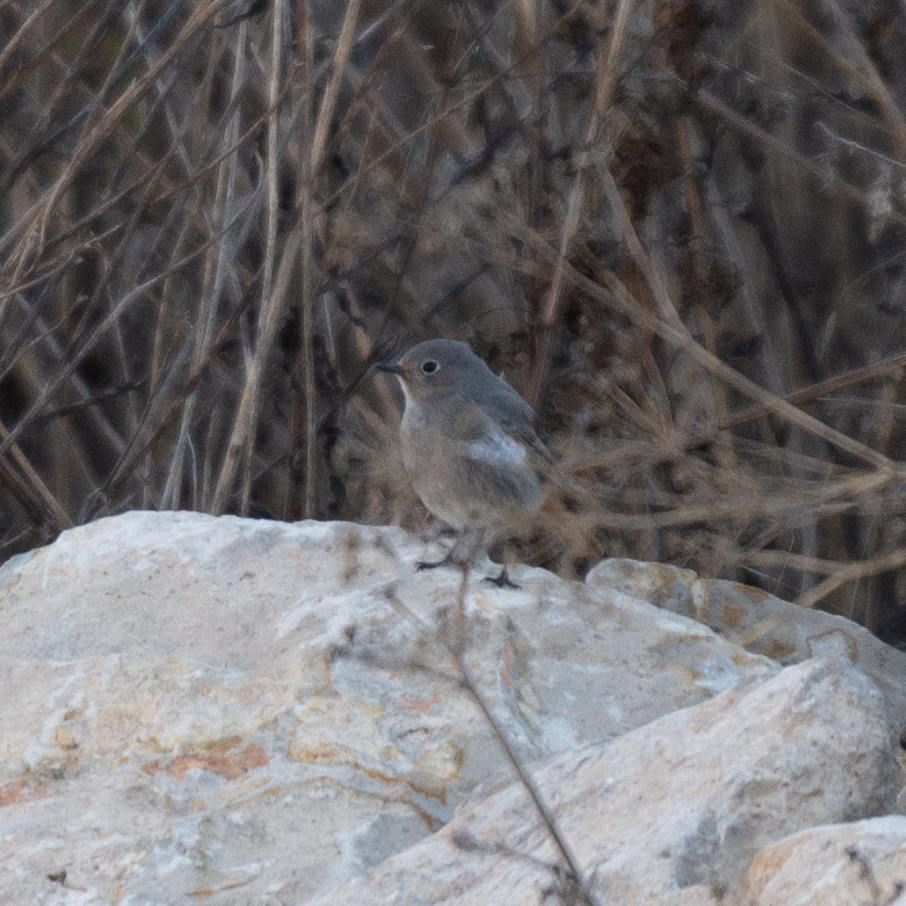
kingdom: Animalia
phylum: Chordata
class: Aves
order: Passeriformes
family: Muscicapidae
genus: Phoenicurus
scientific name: Phoenicurus ochruros
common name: Black redstart
